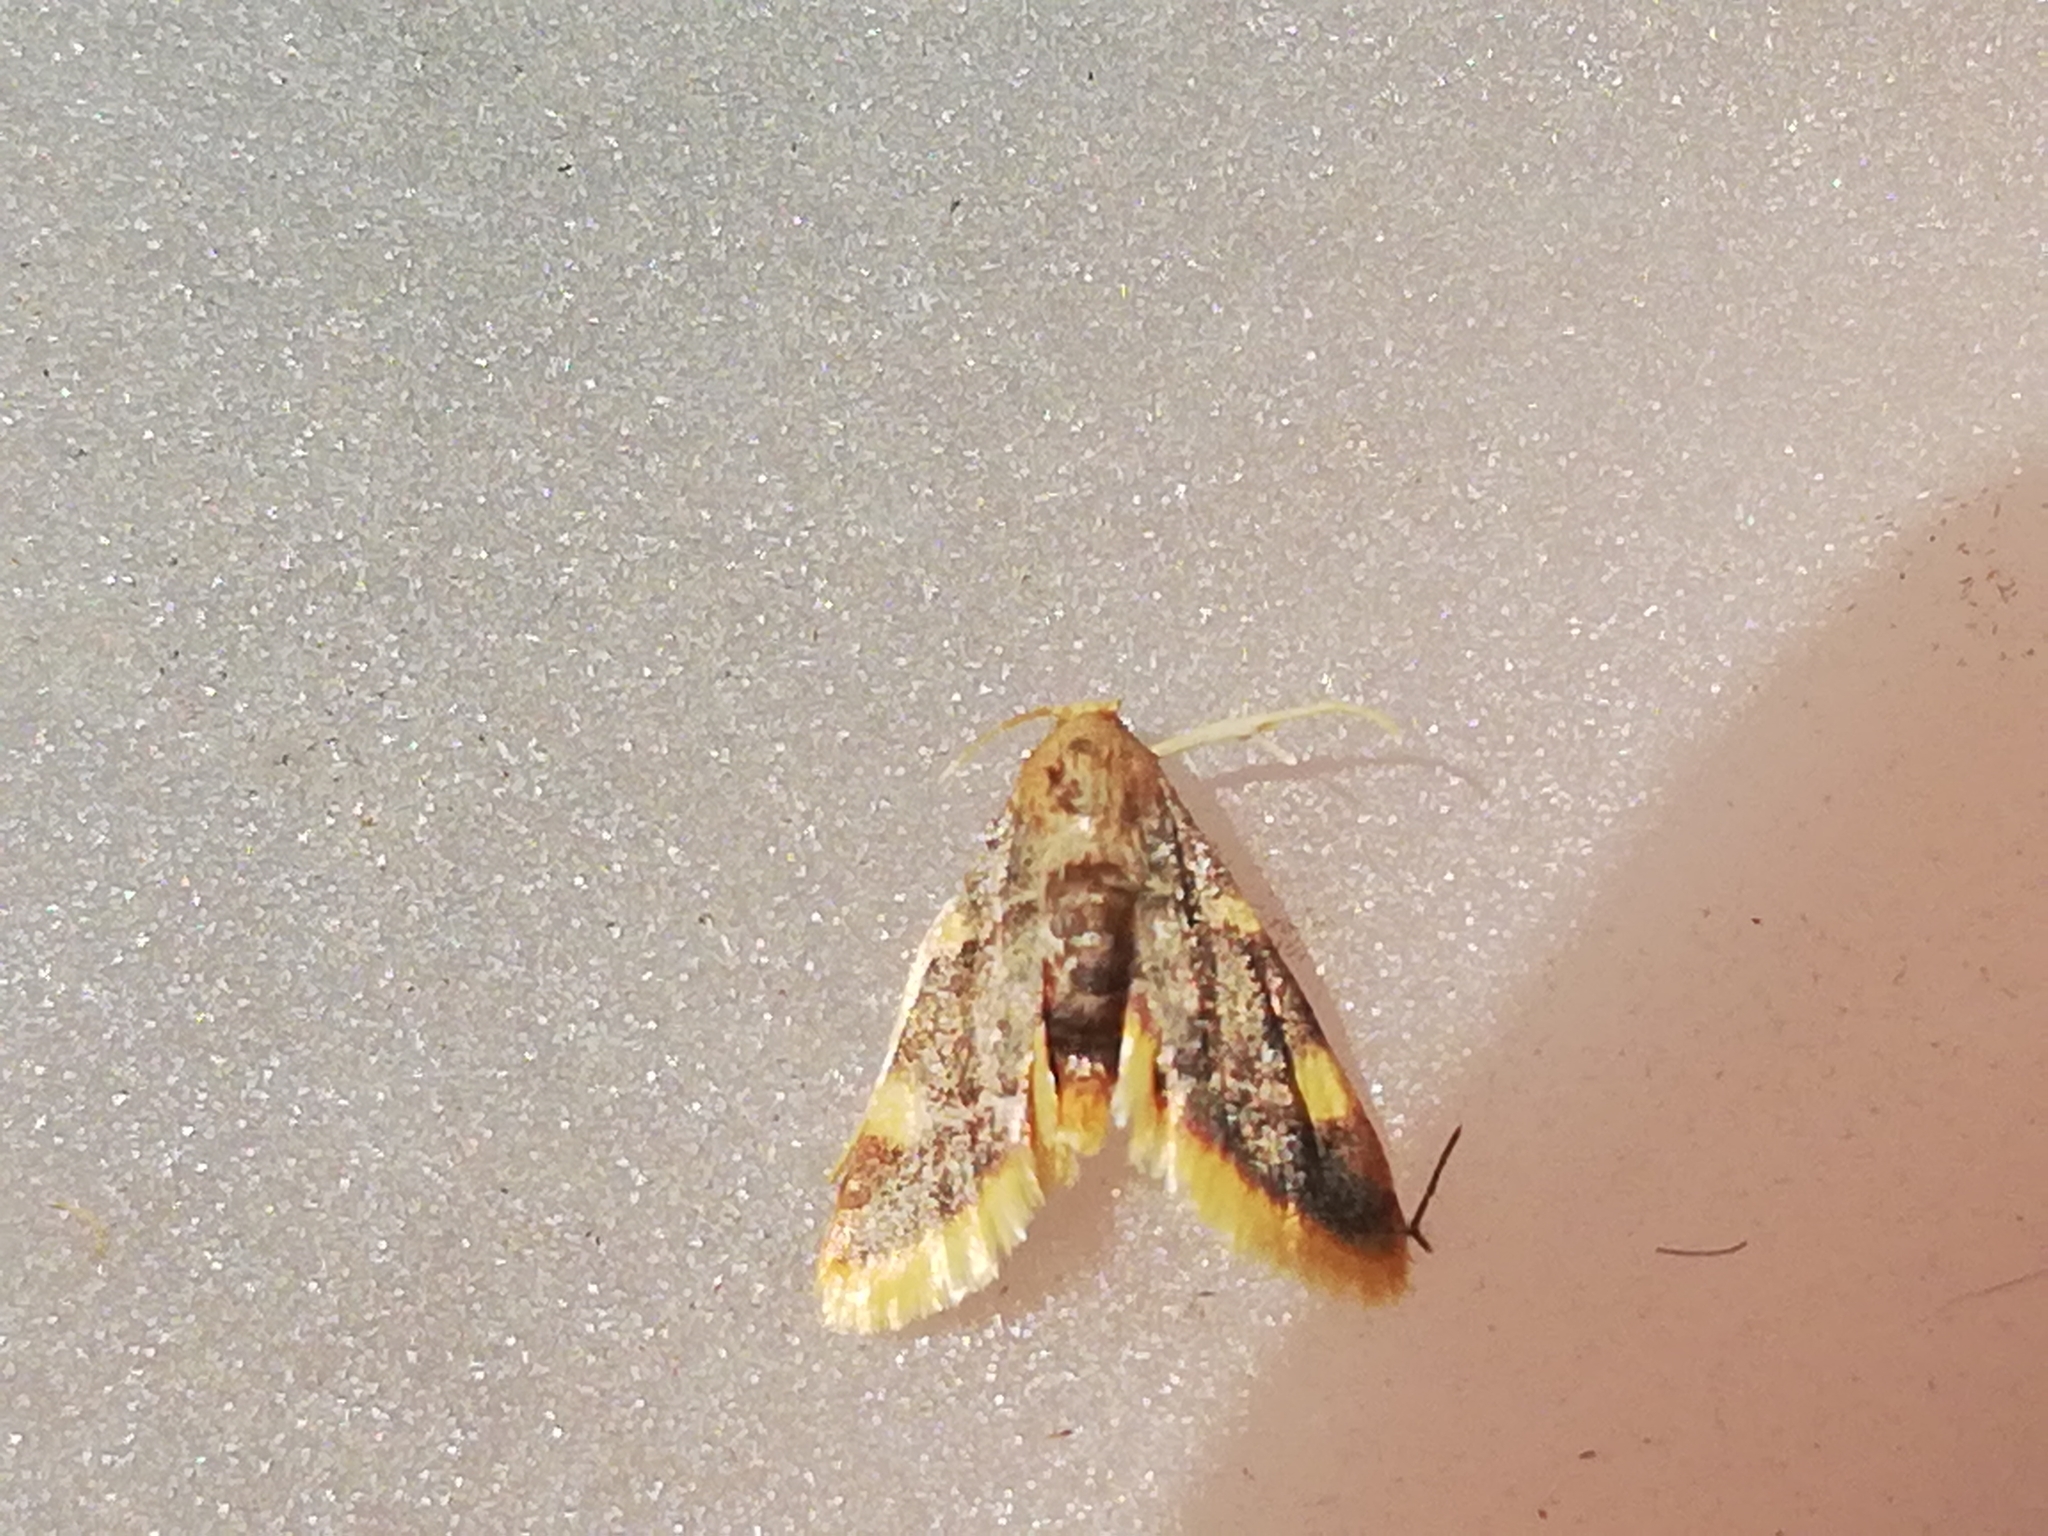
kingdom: Animalia
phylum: Arthropoda
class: Insecta
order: Lepidoptera
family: Pyralidae
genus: Hypsopygia
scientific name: Hypsopygia costalis
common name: Gold triangle
